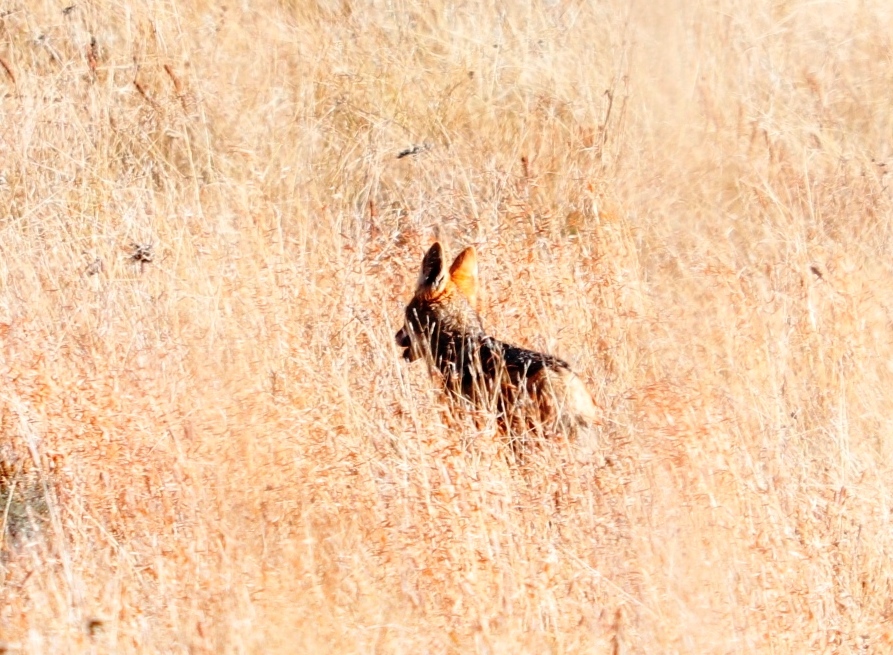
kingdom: Animalia
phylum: Chordata
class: Mammalia
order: Carnivora
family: Canidae
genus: Lupulella
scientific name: Lupulella
